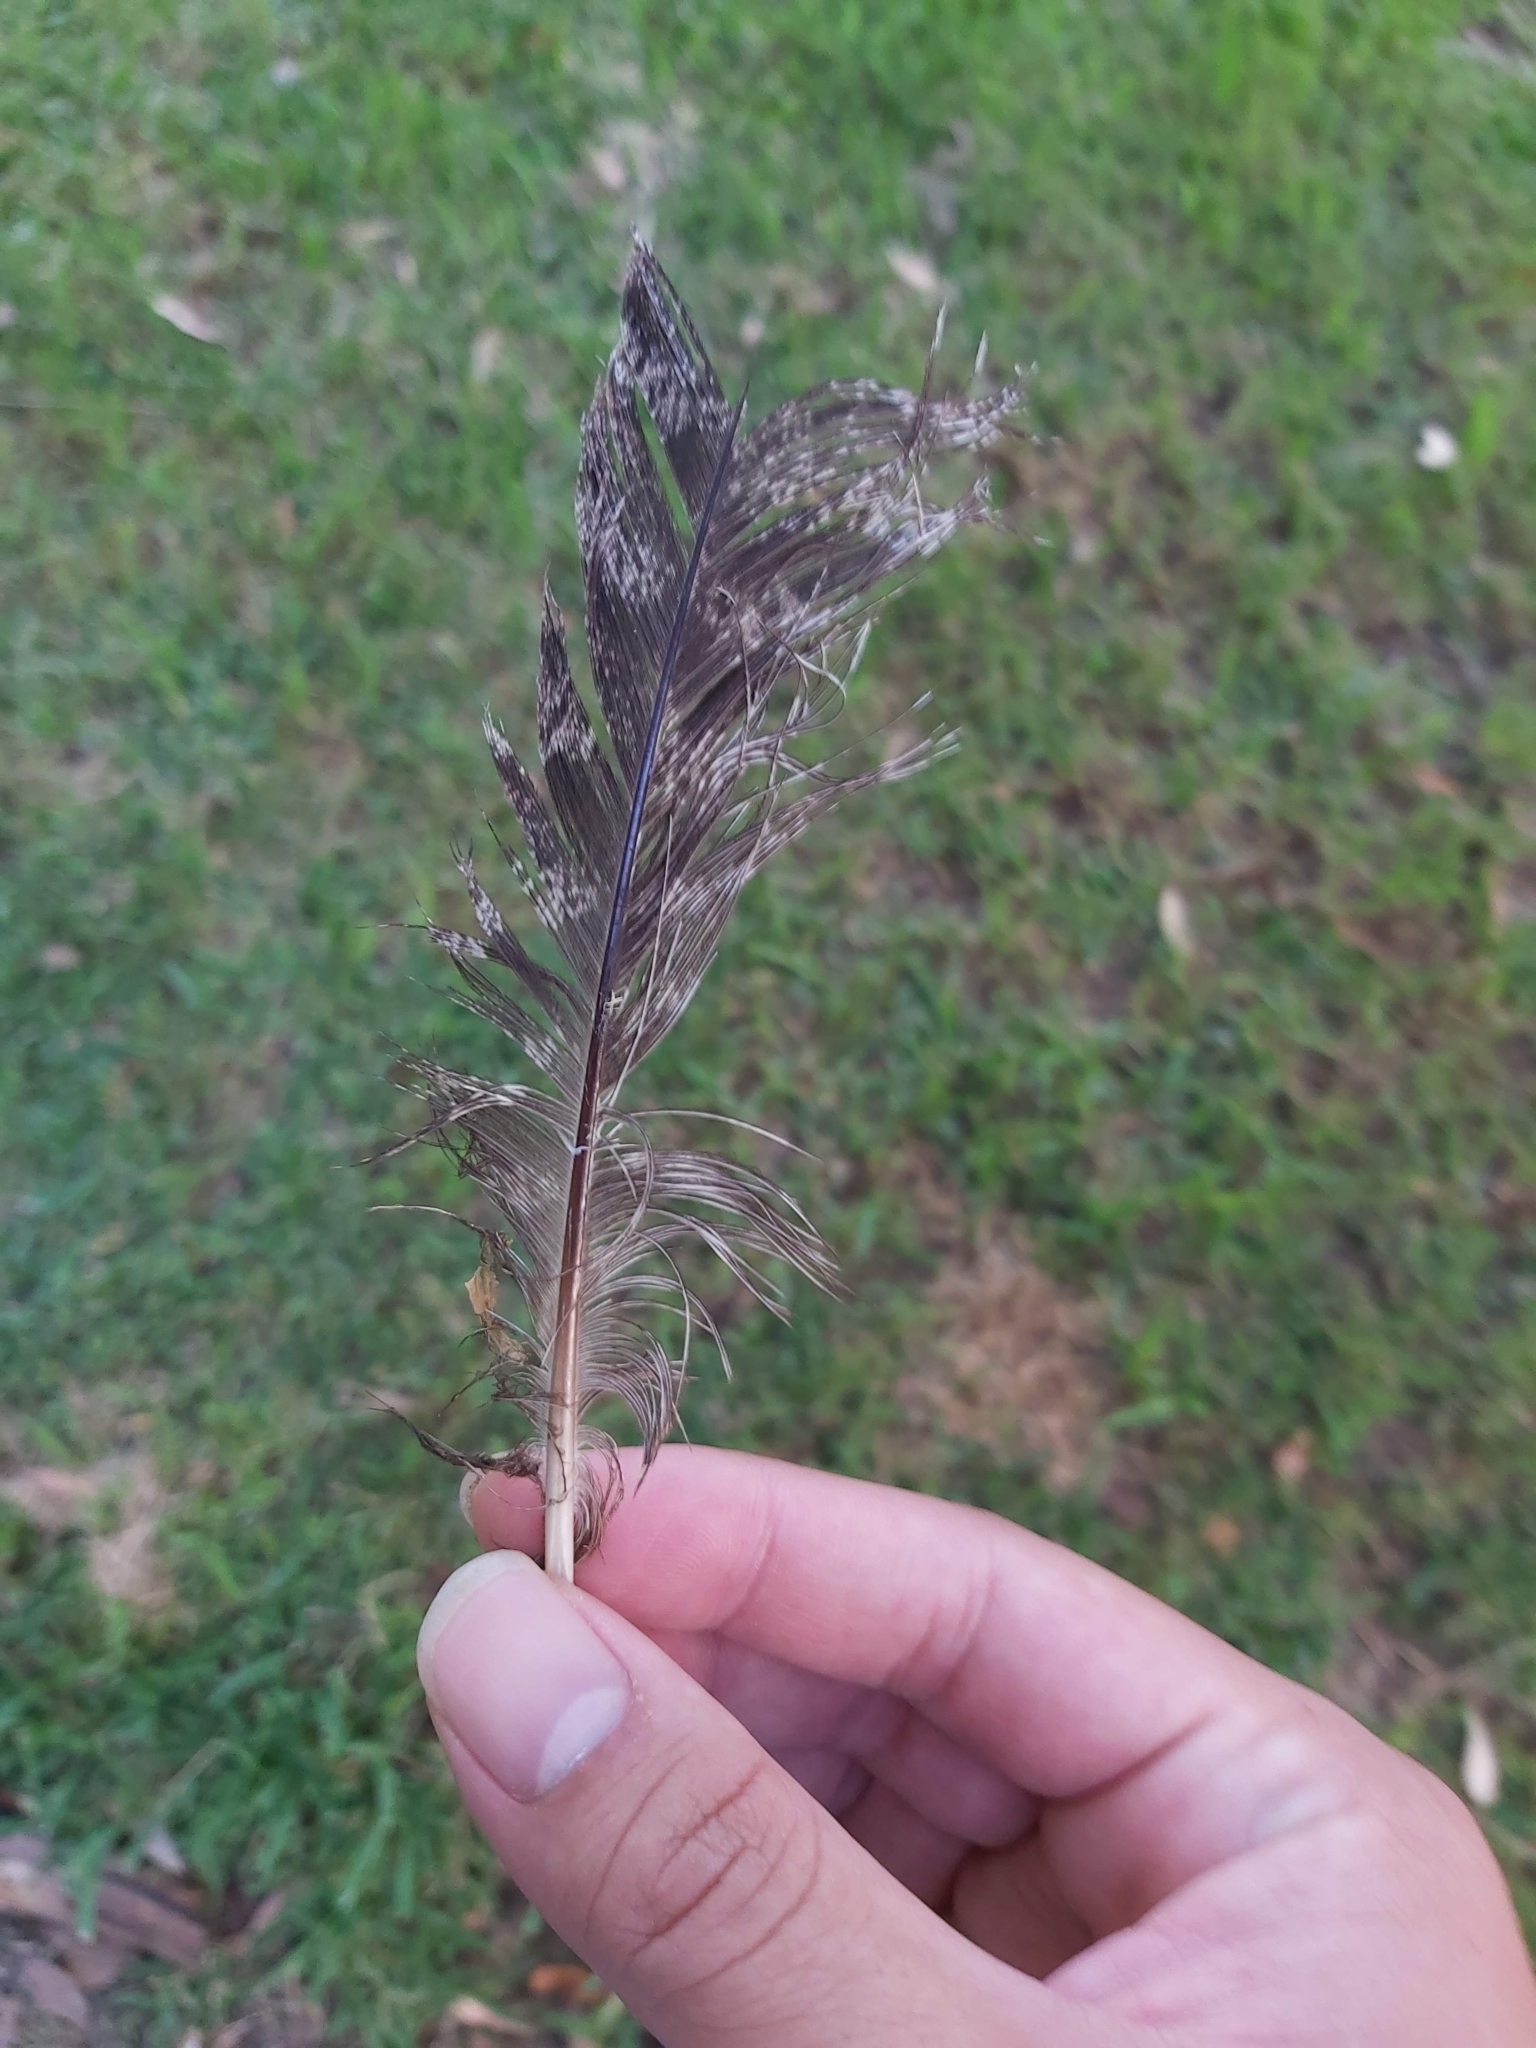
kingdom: Animalia
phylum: Chordata
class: Aves
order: Caprimulgiformes
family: Podargidae
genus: Podargus
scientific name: Podargus strigoides
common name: Tawny frogmouth
